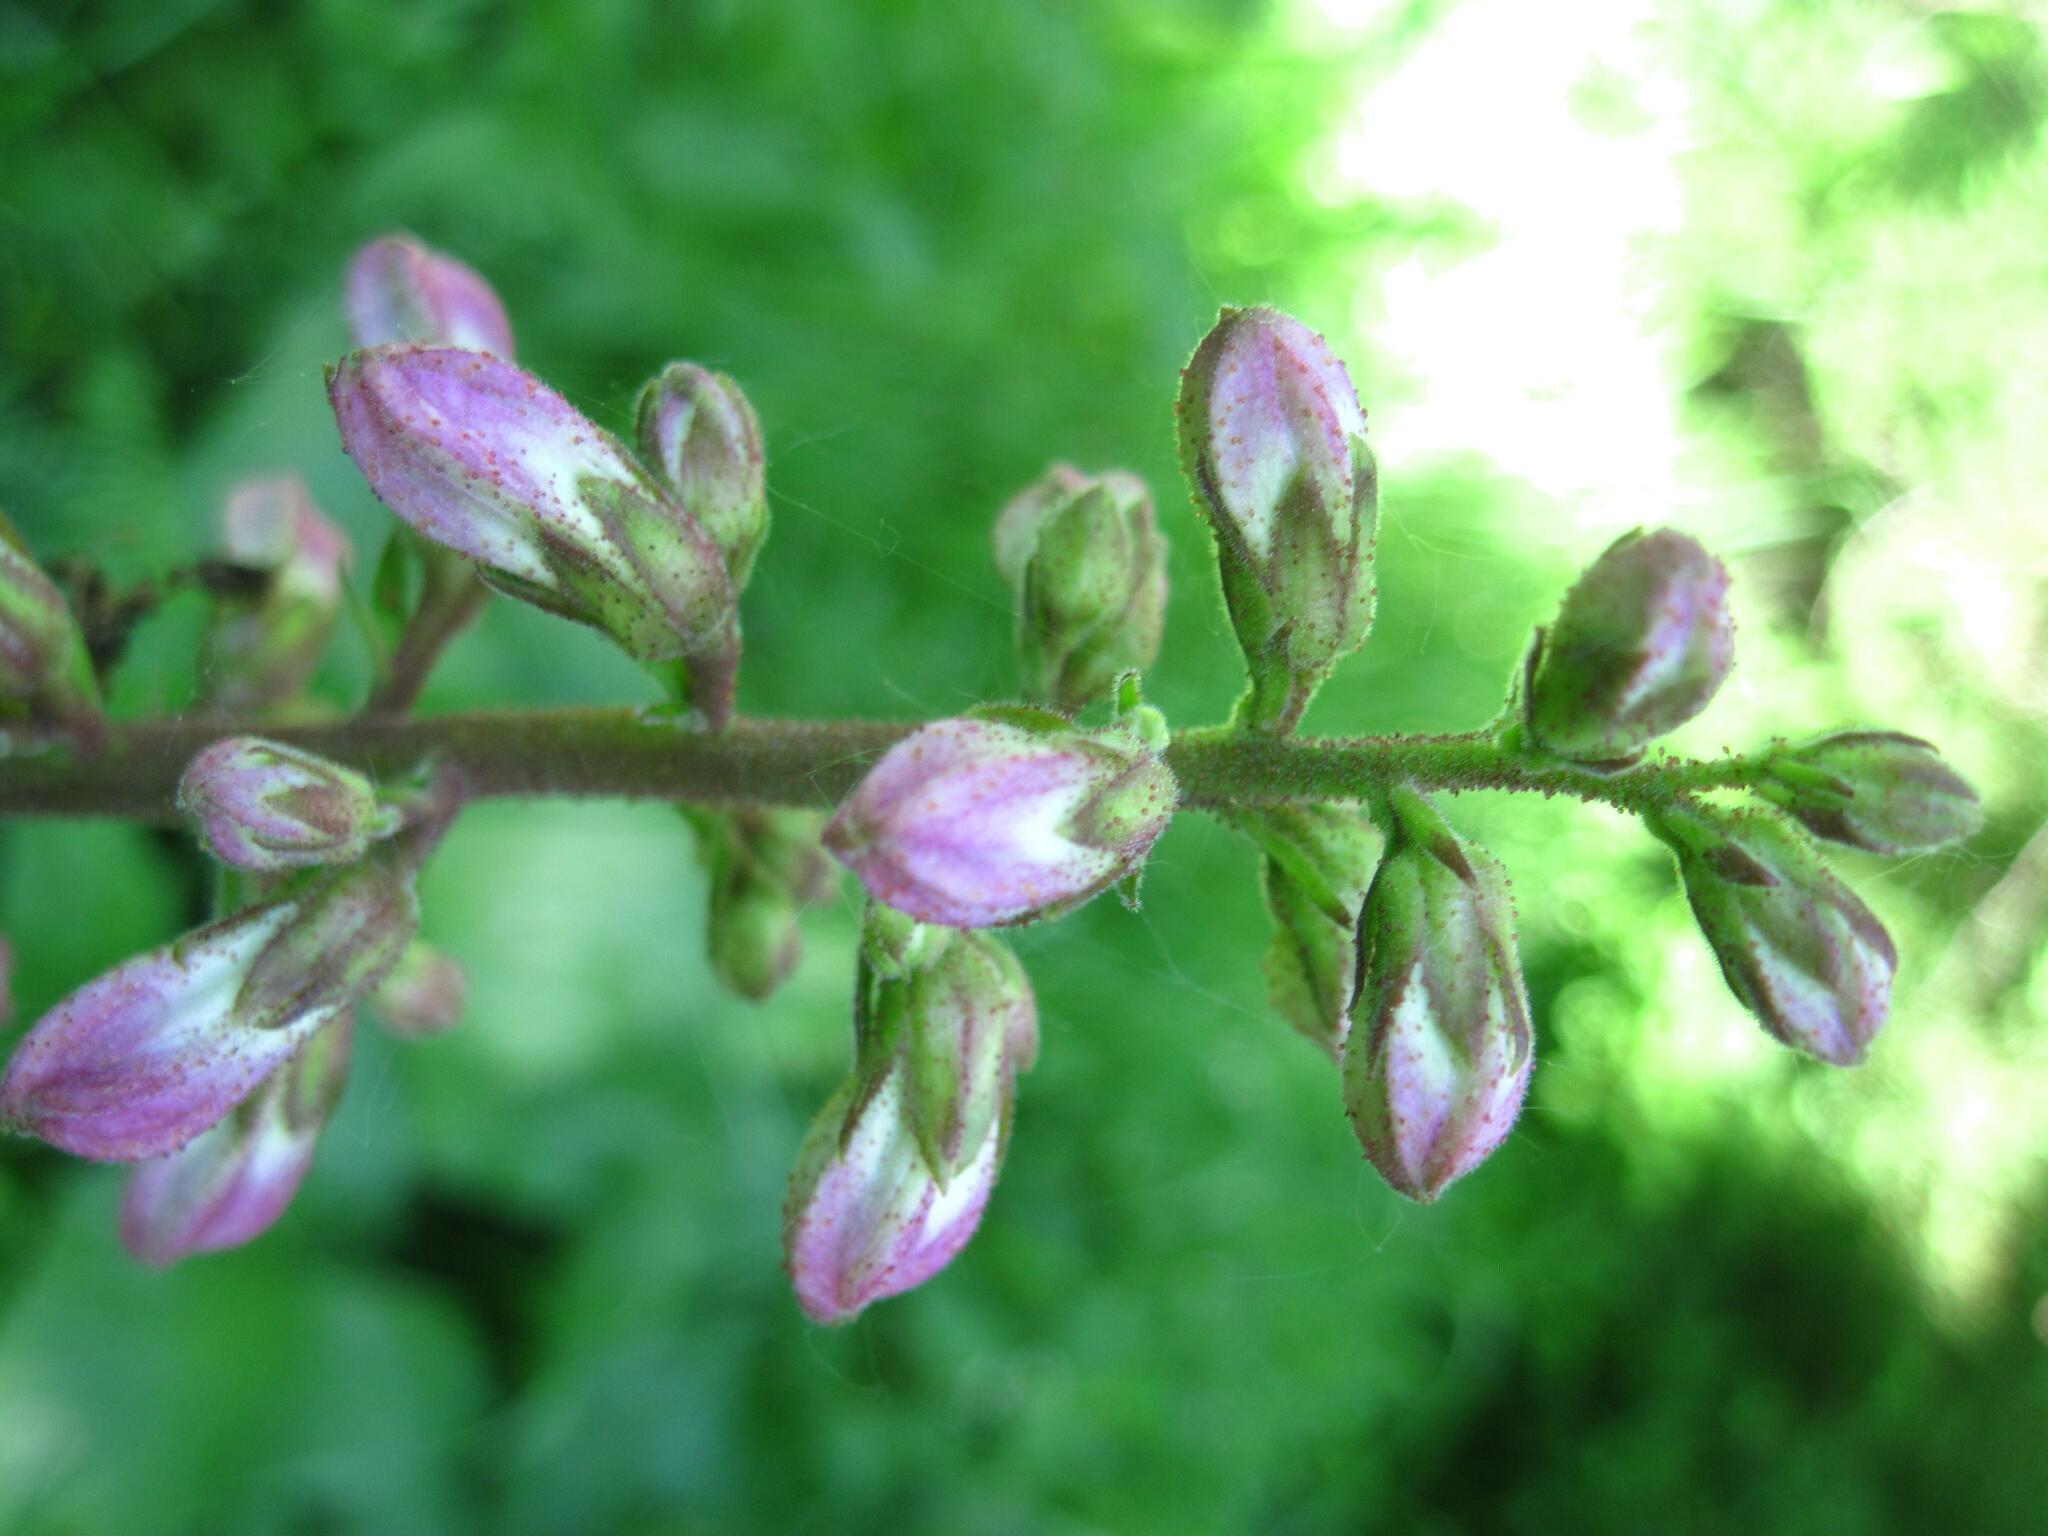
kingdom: Plantae
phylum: Tracheophyta
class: Magnoliopsida
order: Sapindales
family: Rutaceae
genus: Dictamnus
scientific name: Dictamnus albus
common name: Gasplant
